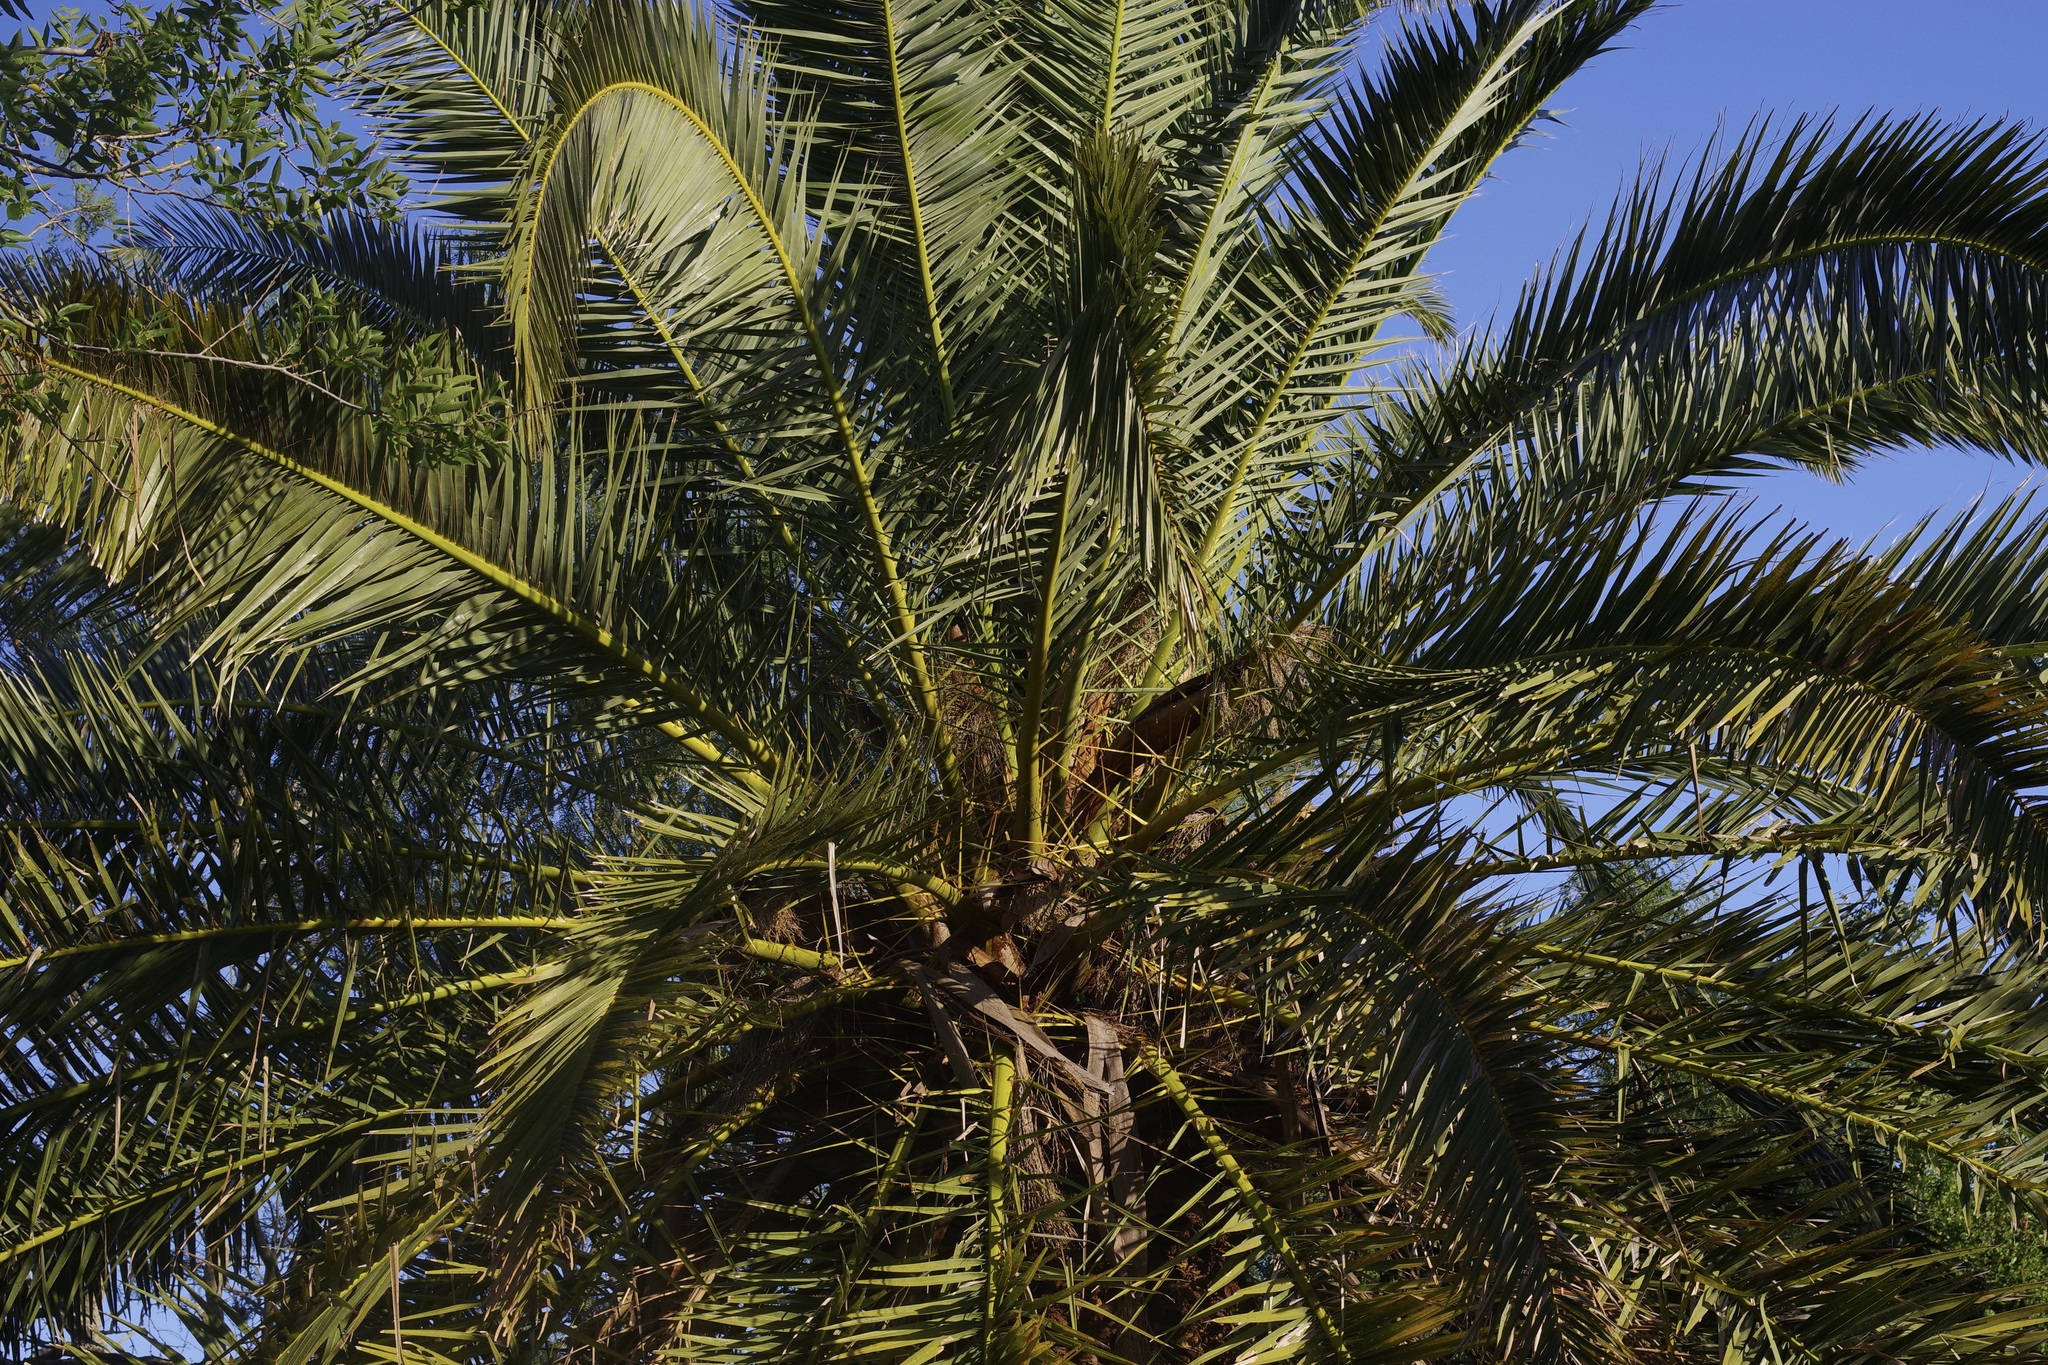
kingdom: Plantae
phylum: Tracheophyta
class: Liliopsida
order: Arecales
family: Arecaceae
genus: Phoenix
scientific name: Phoenix canariensis
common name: Canary island date palm
